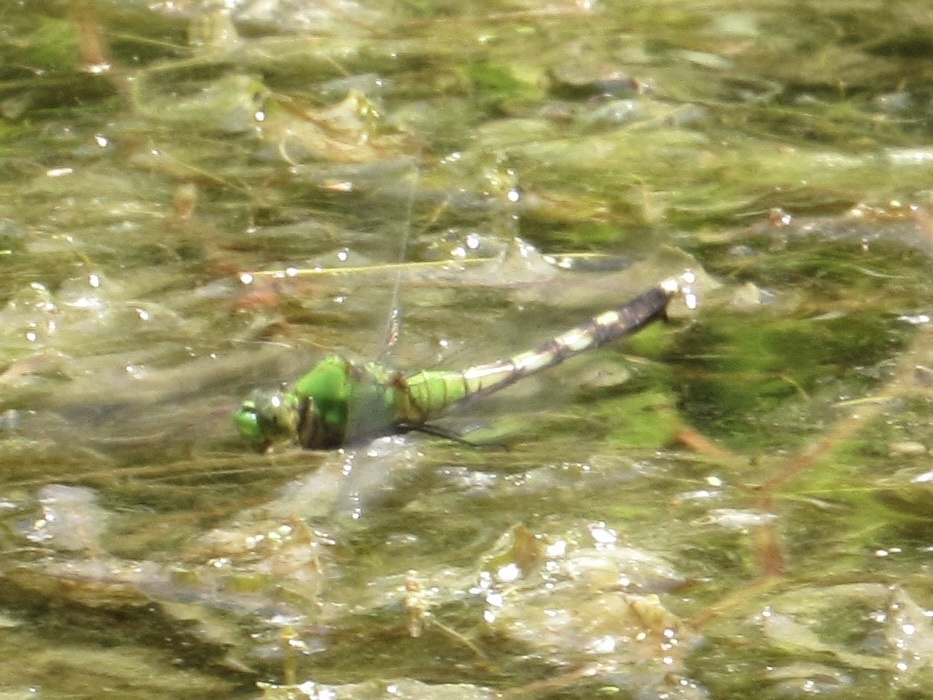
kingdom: Animalia
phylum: Arthropoda
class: Insecta
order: Odonata
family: Libellulidae
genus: Erythemis
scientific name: Erythemis simplicicollis
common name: Eastern pondhawk
